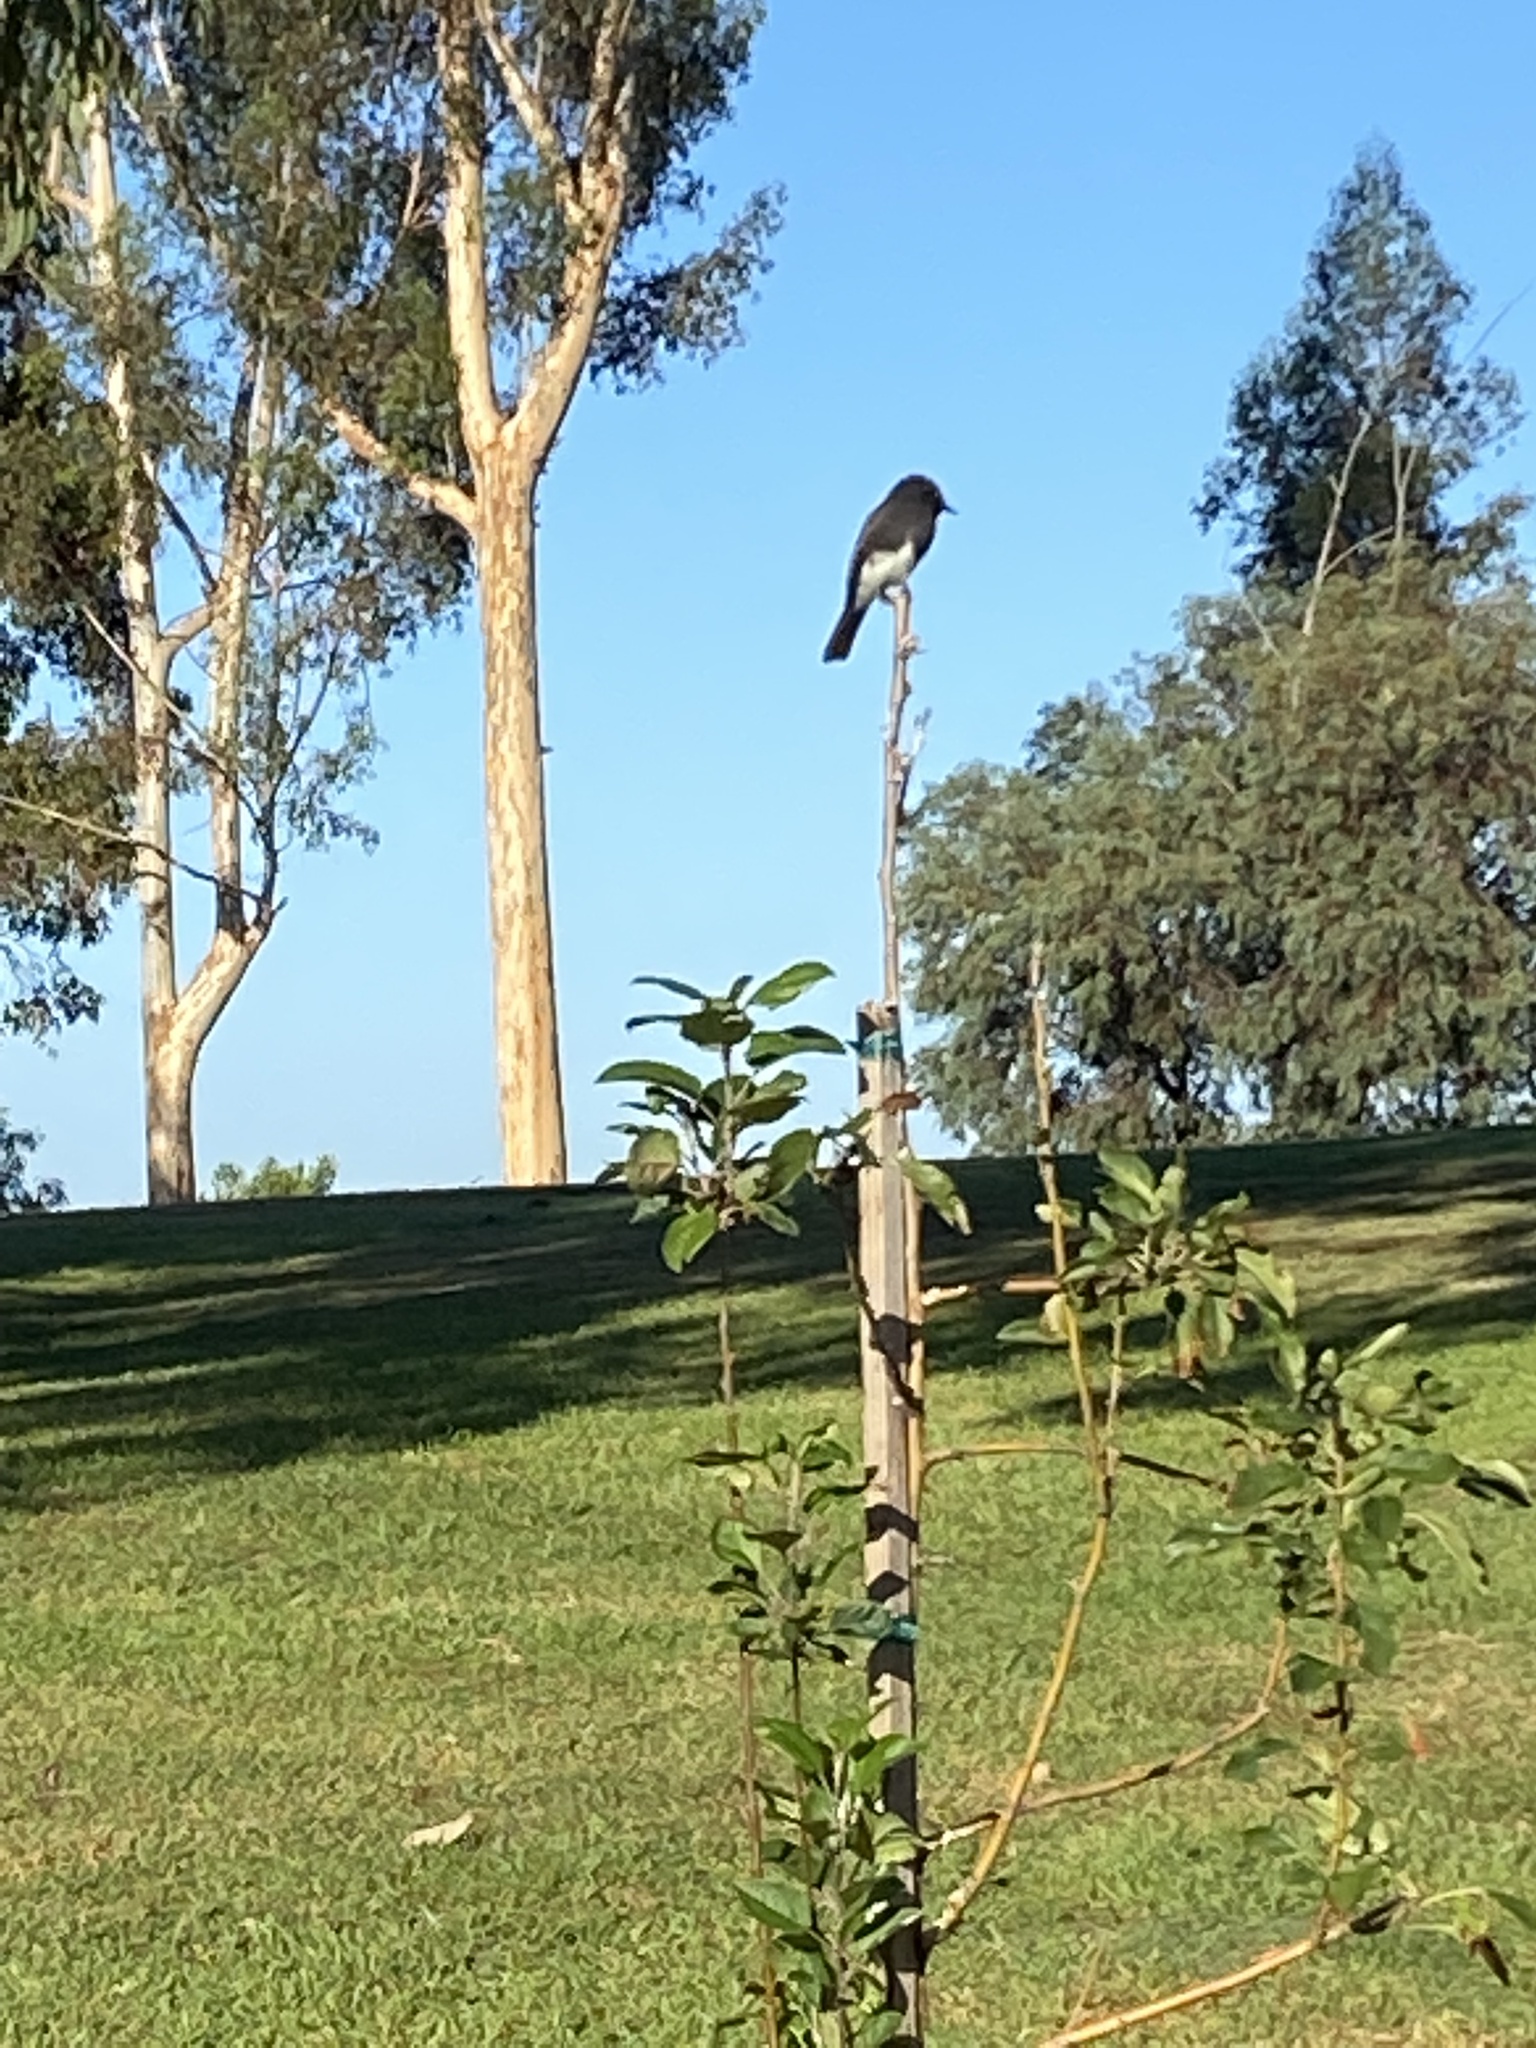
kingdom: Animalia
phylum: Chordata
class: Aves
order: Passeriformes
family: Tyrannidae
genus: Sayornis
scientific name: Sayornis nigricans
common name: Black phoebe
